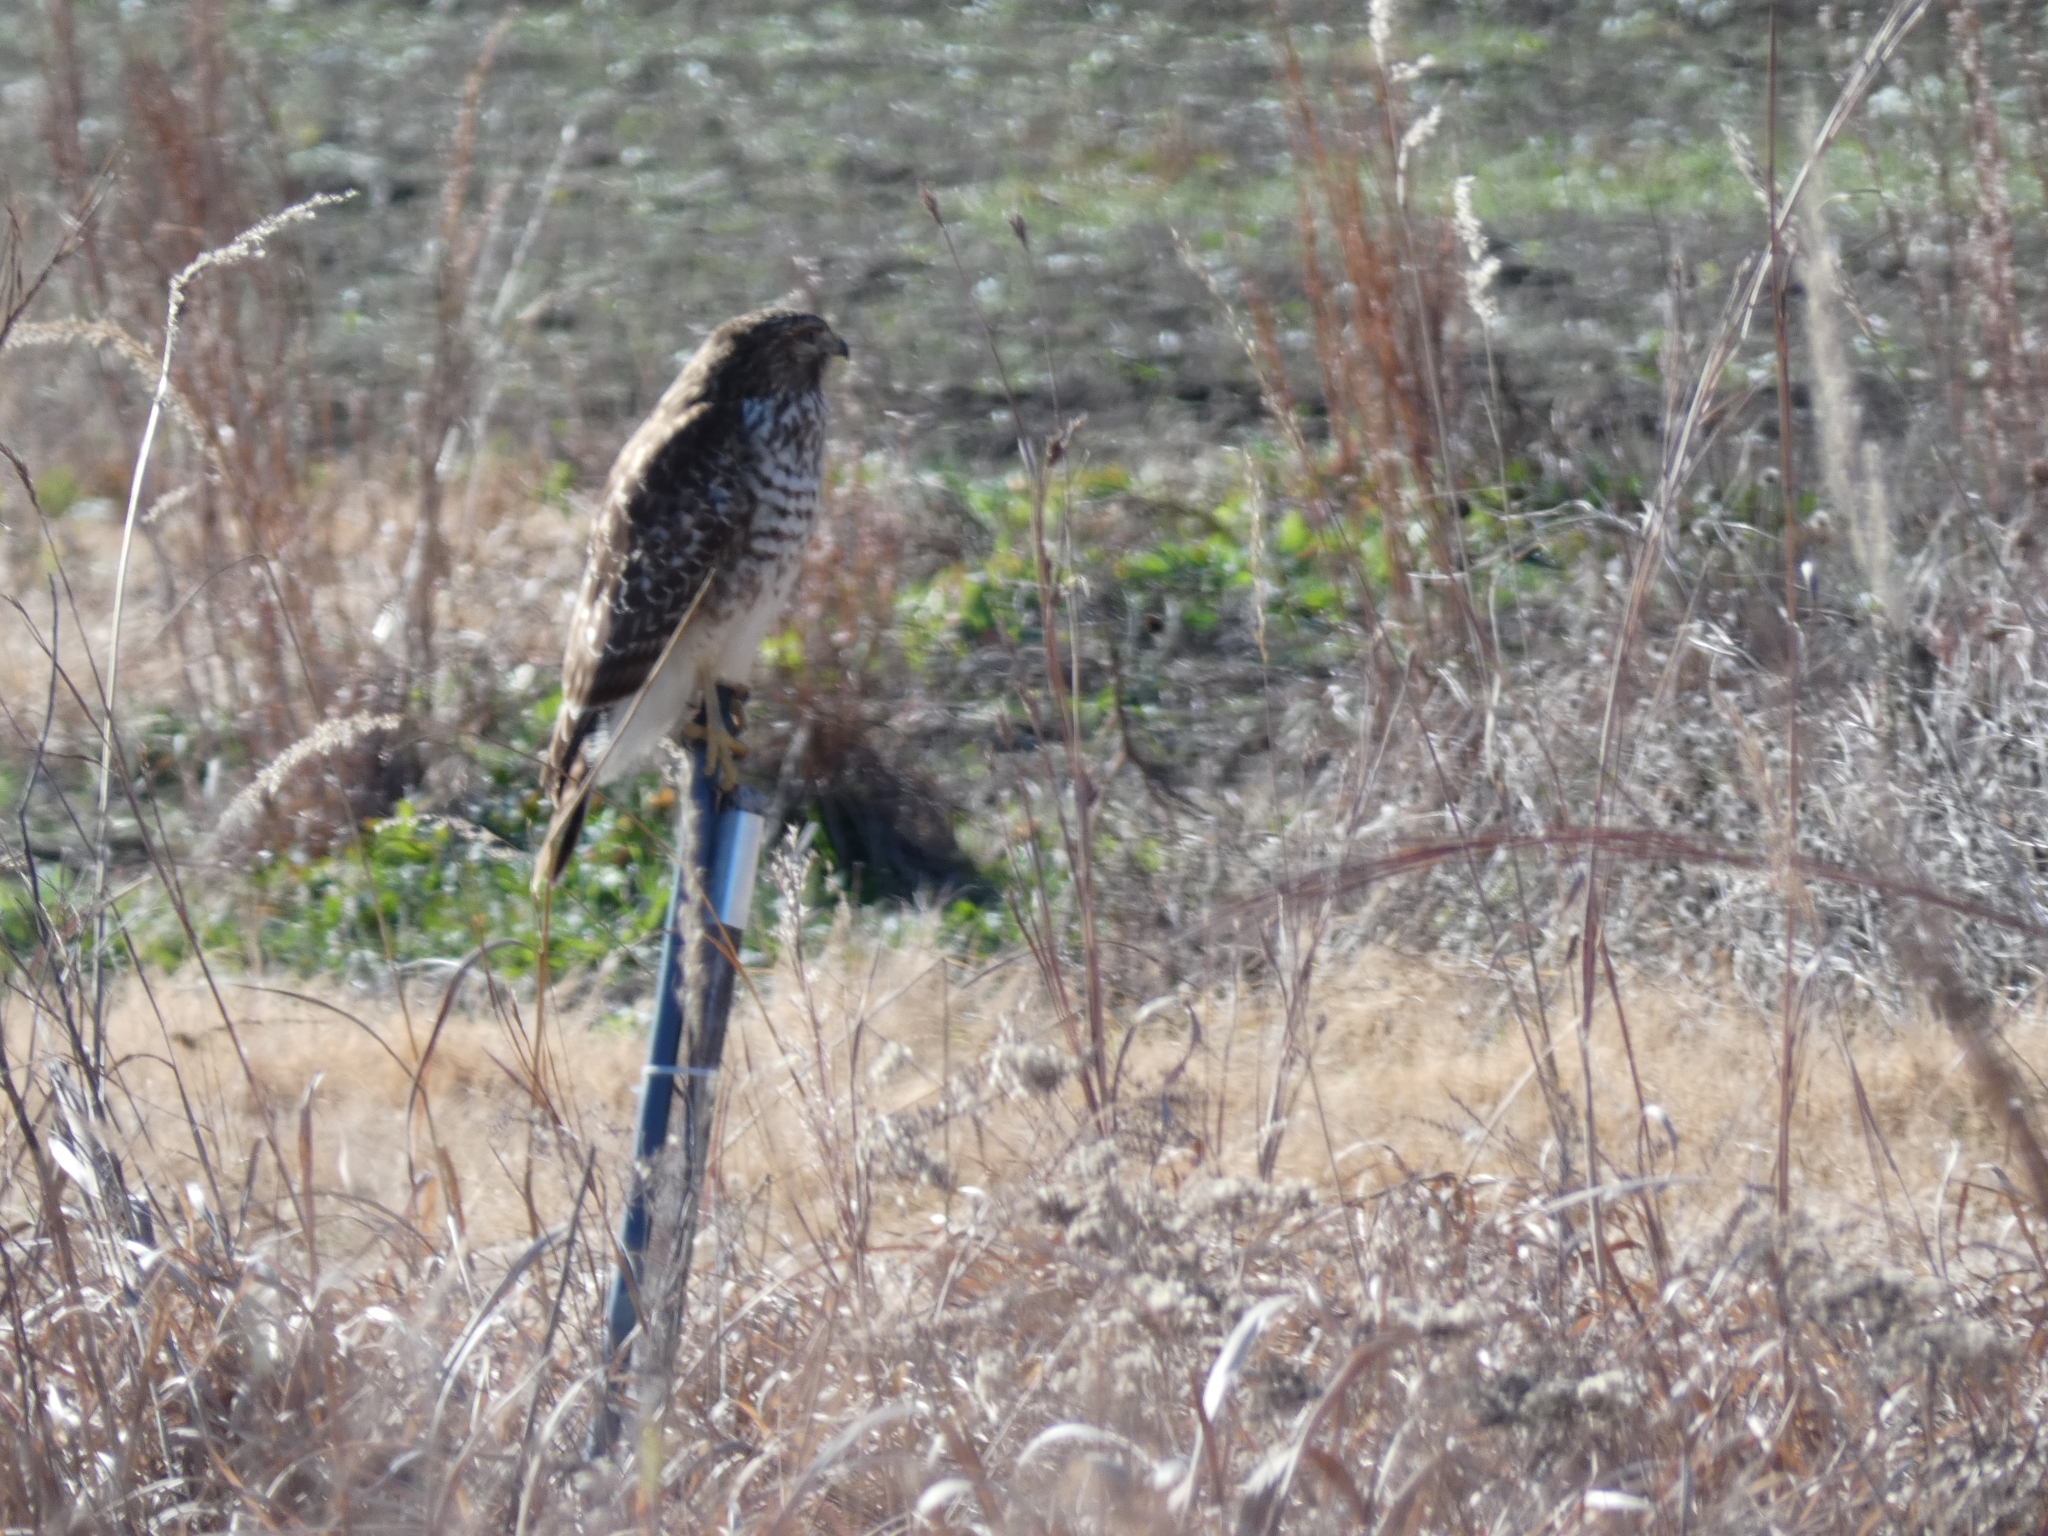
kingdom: Animalia
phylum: Chordata
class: Aves
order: Accipitriformes
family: Accipitridae
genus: Buteo
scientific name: Buteo lineatus
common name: Red-shouldered hawk
